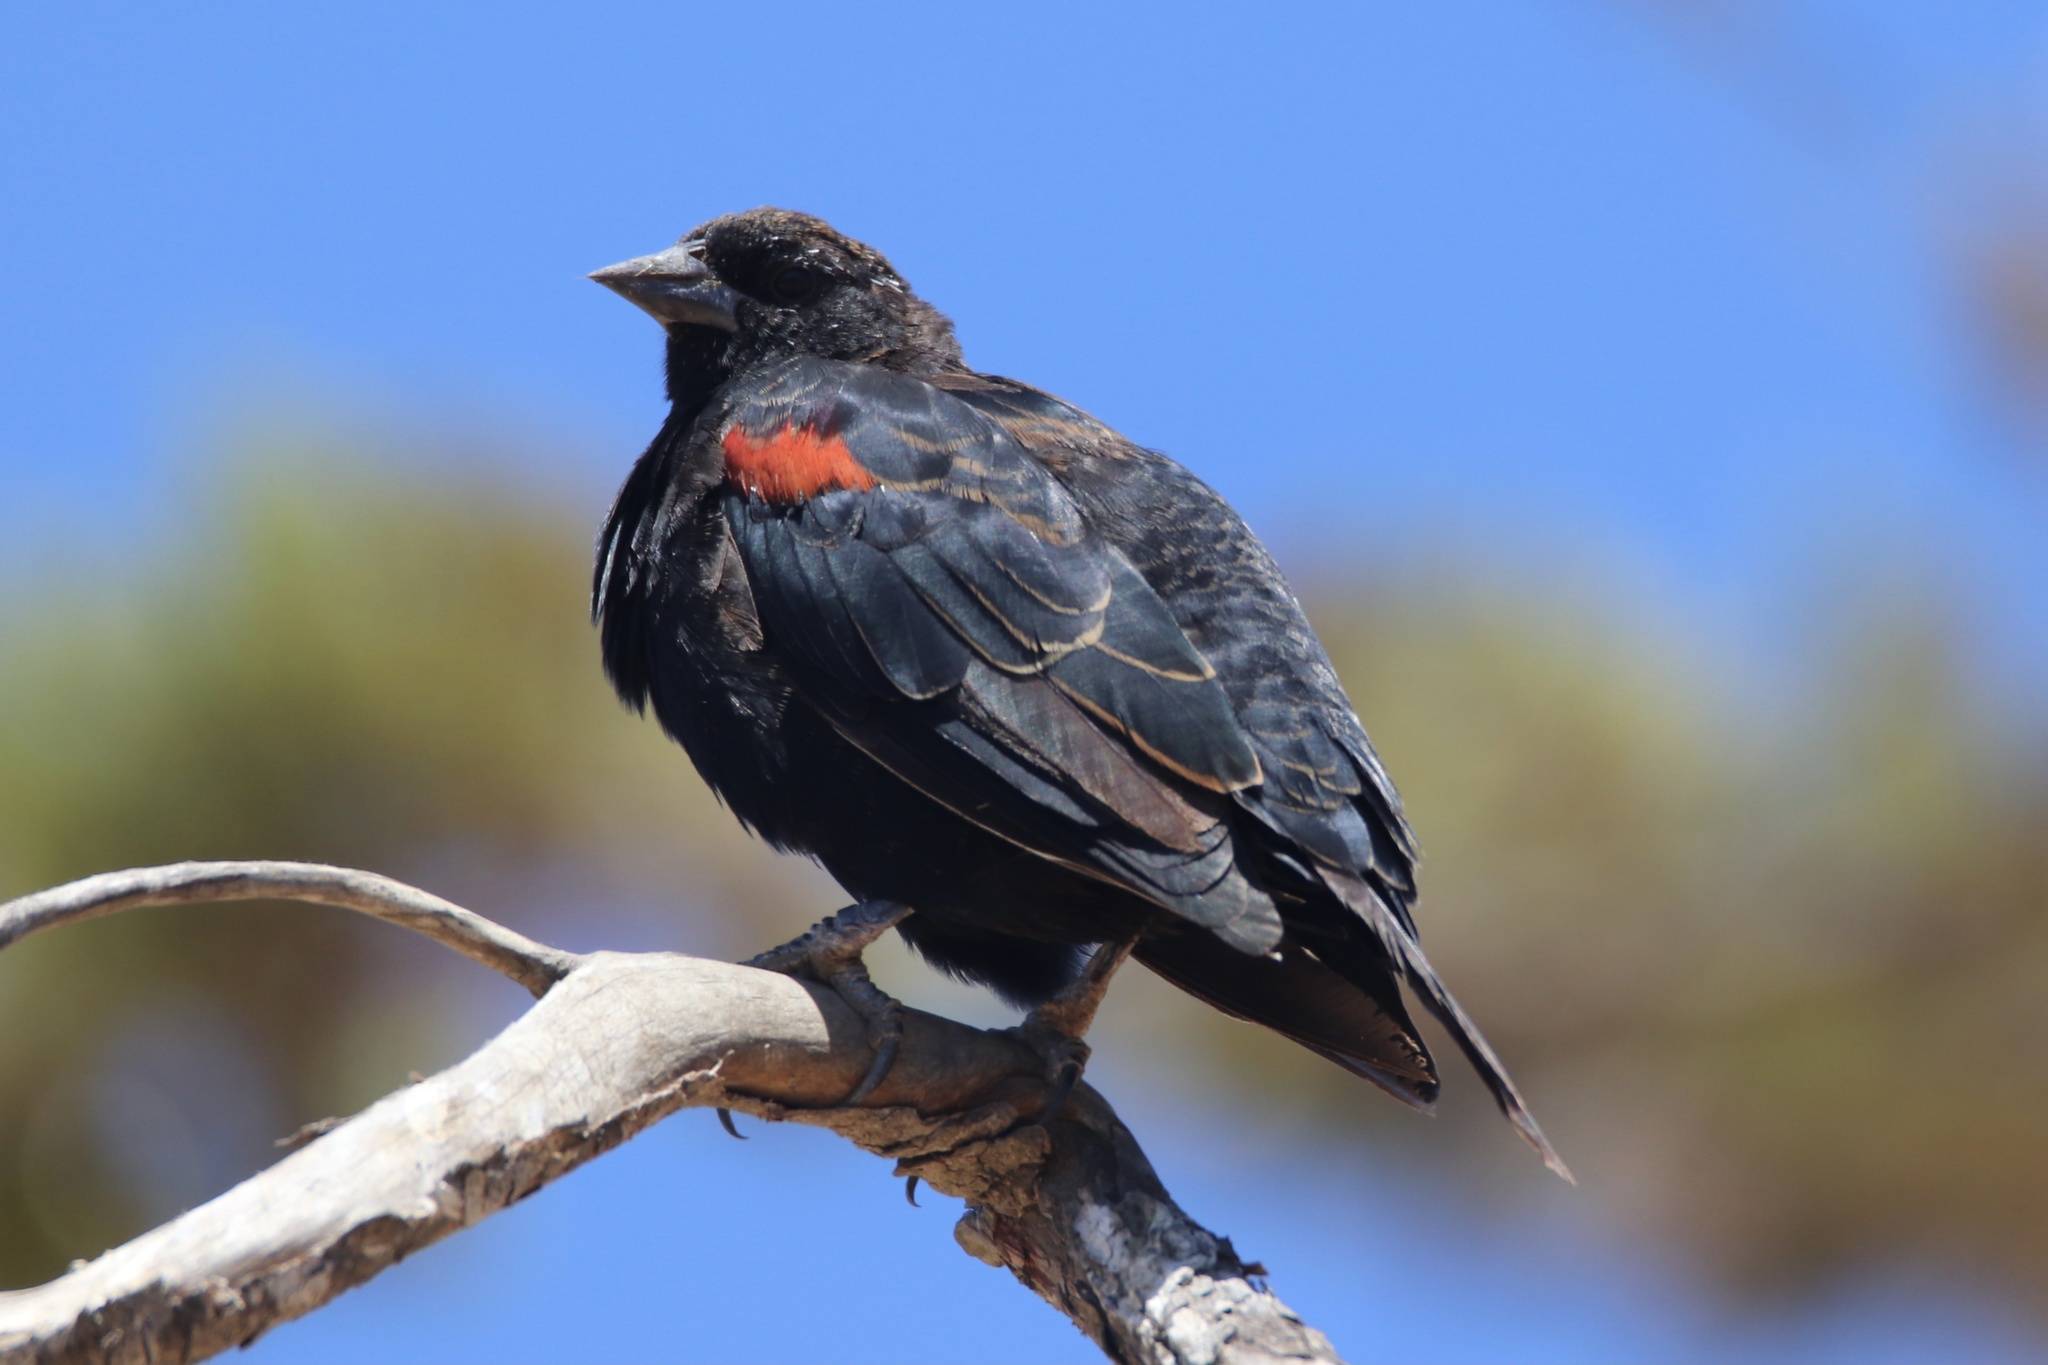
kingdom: Animalia
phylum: Chordata
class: Aves
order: Passeriformes
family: Icteridae
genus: Agelaius
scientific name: Agelaius phoeniceus
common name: Red-winged blackbird
